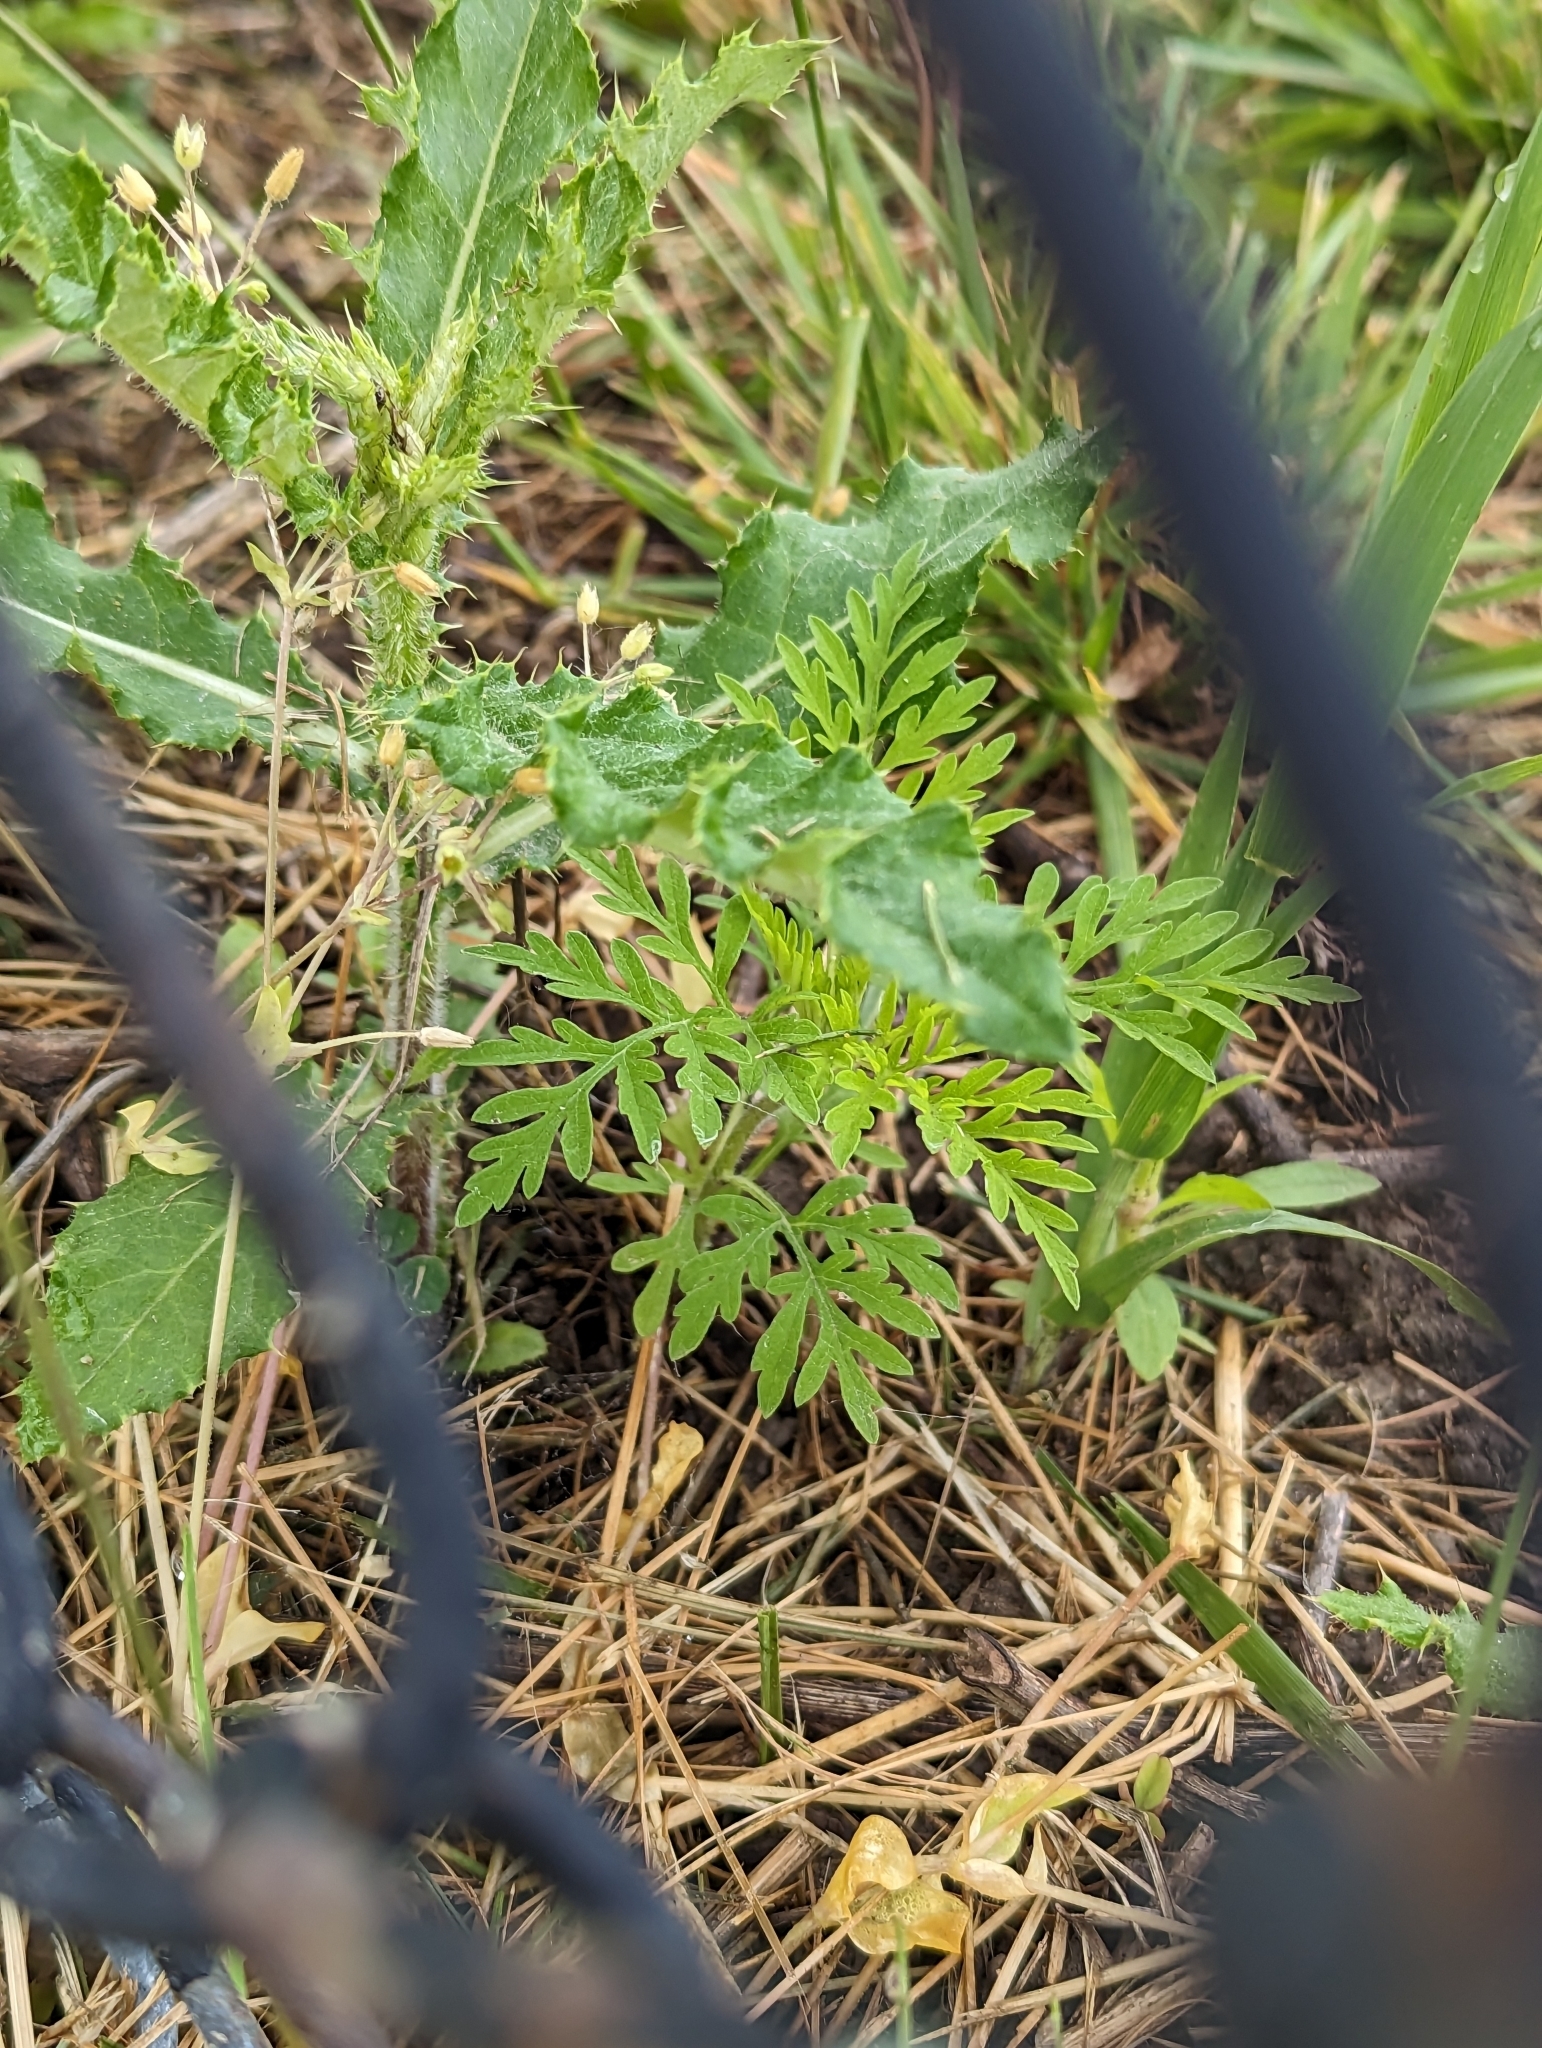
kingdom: Plantae
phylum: Tracheophyta
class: Magnoliopsida
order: Asterales
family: Asteraceae
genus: Ambrosia
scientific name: Ambrosia artemisiifolia
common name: Annual ragweed
